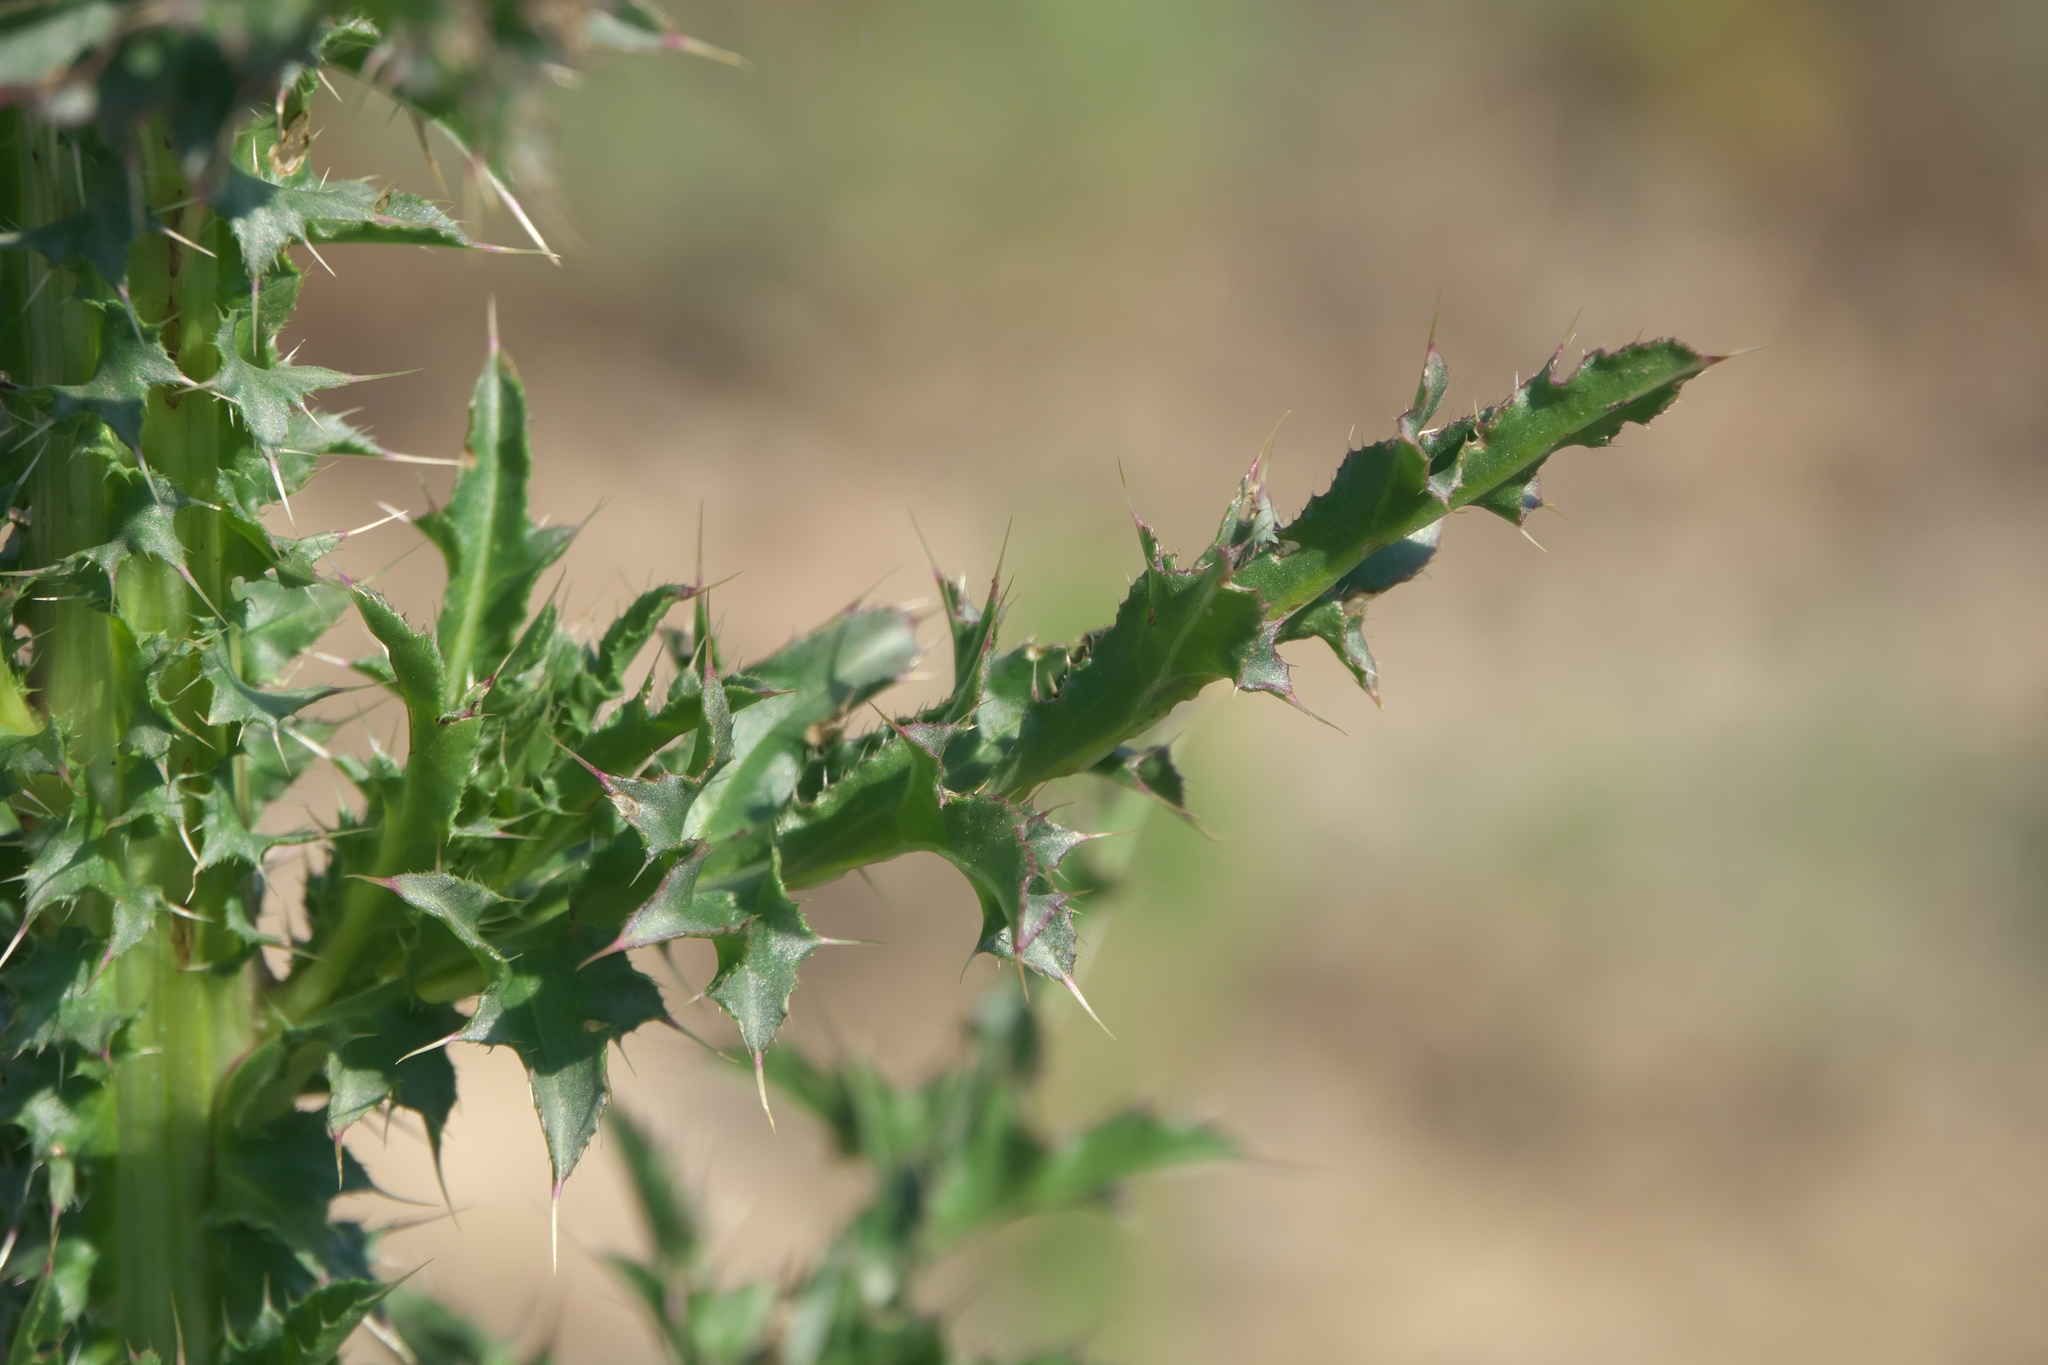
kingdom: Plantae
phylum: Tracheophyta
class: Magnoliopsida
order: Asterales
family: Asteraceae
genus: Carduus
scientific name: Carduus nutans
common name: Musk thistle
